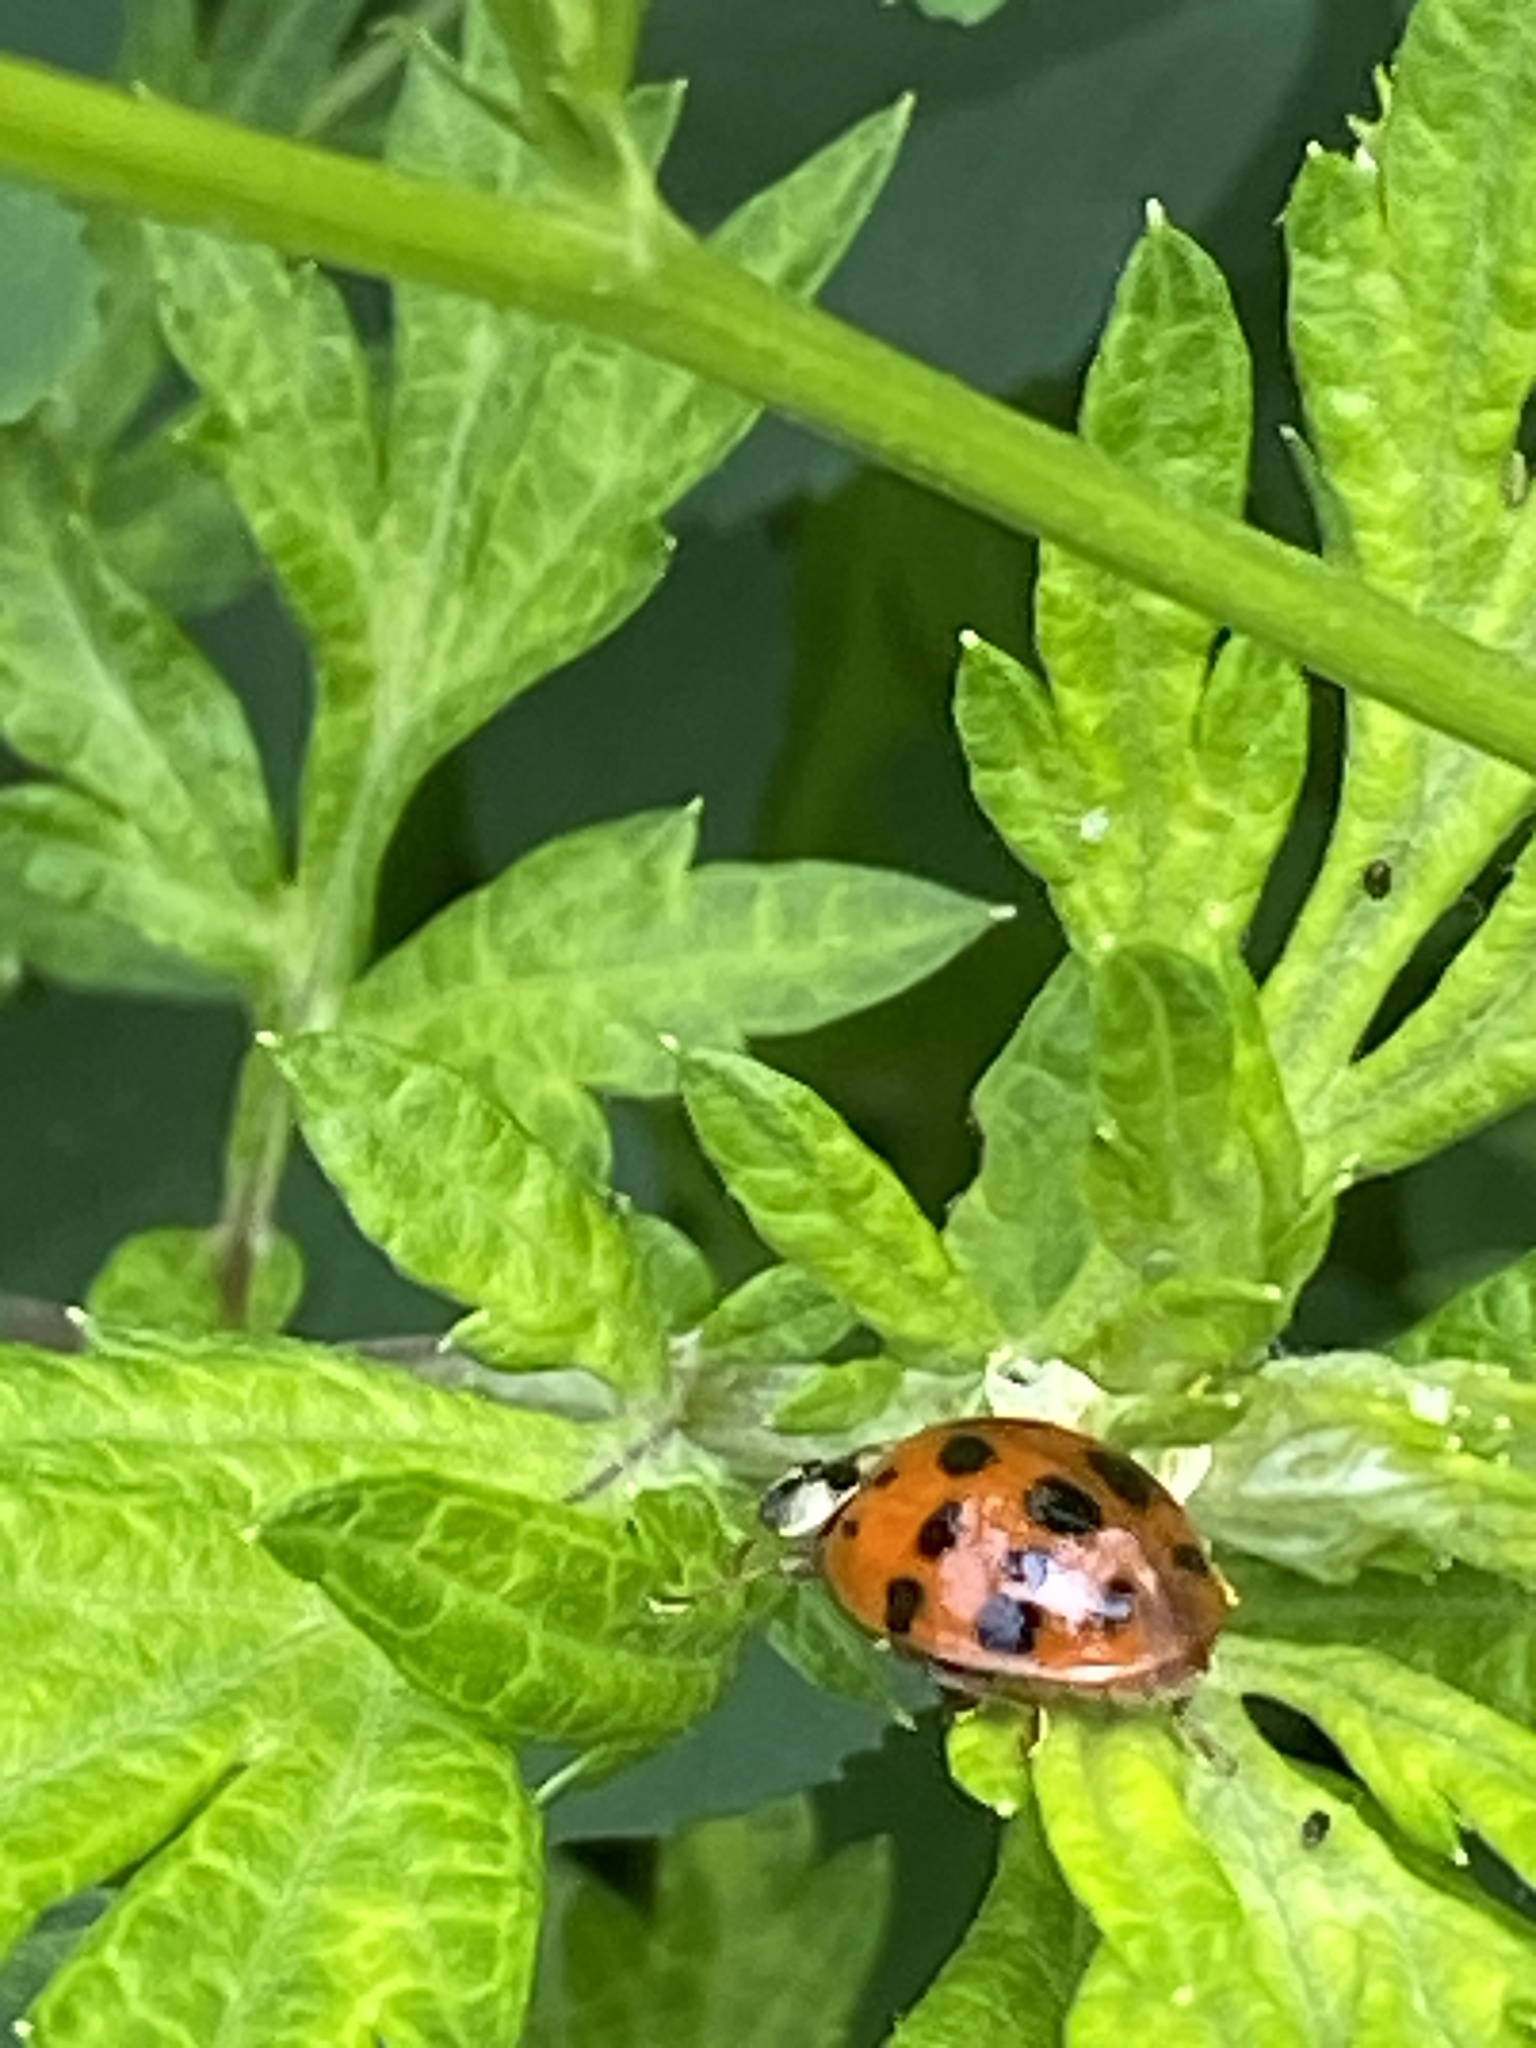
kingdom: Animalia
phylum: Arthropoda
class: Insecta
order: Coleoptera
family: Coccinellidae
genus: Harmonia
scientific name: Harmonia axyridis
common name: Harlequin ladybird
